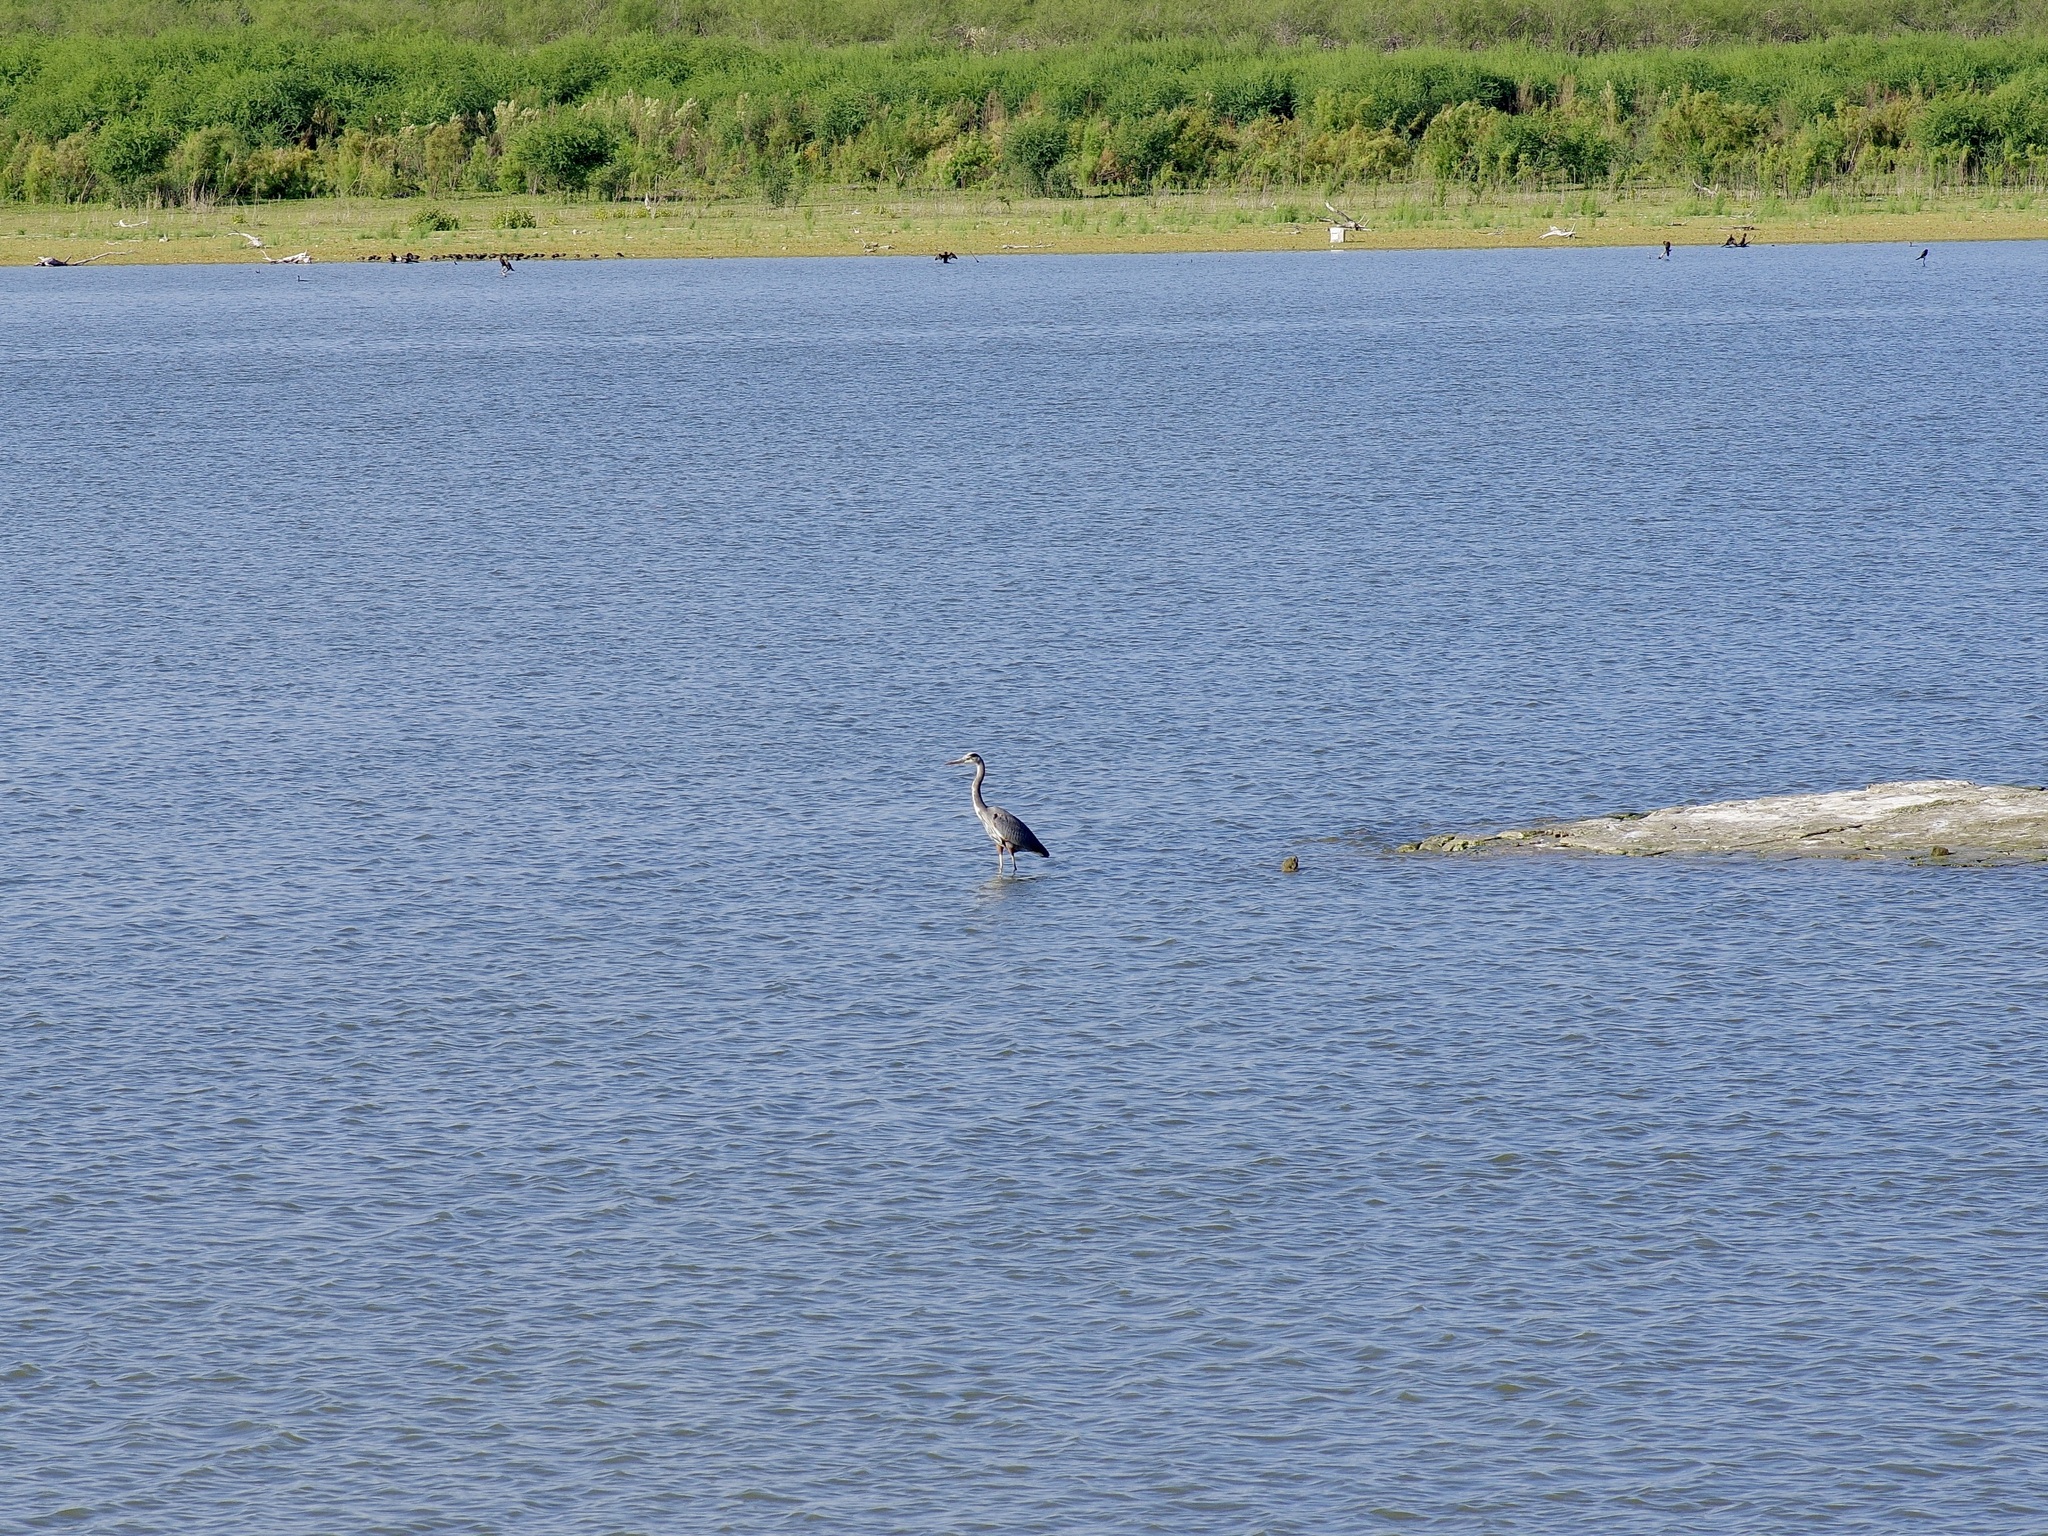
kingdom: Animalia
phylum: Chordata
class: Aves
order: Pelecaniformes
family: Ardeidae
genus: Ardea
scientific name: Ardea herodias
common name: Great blue heron
